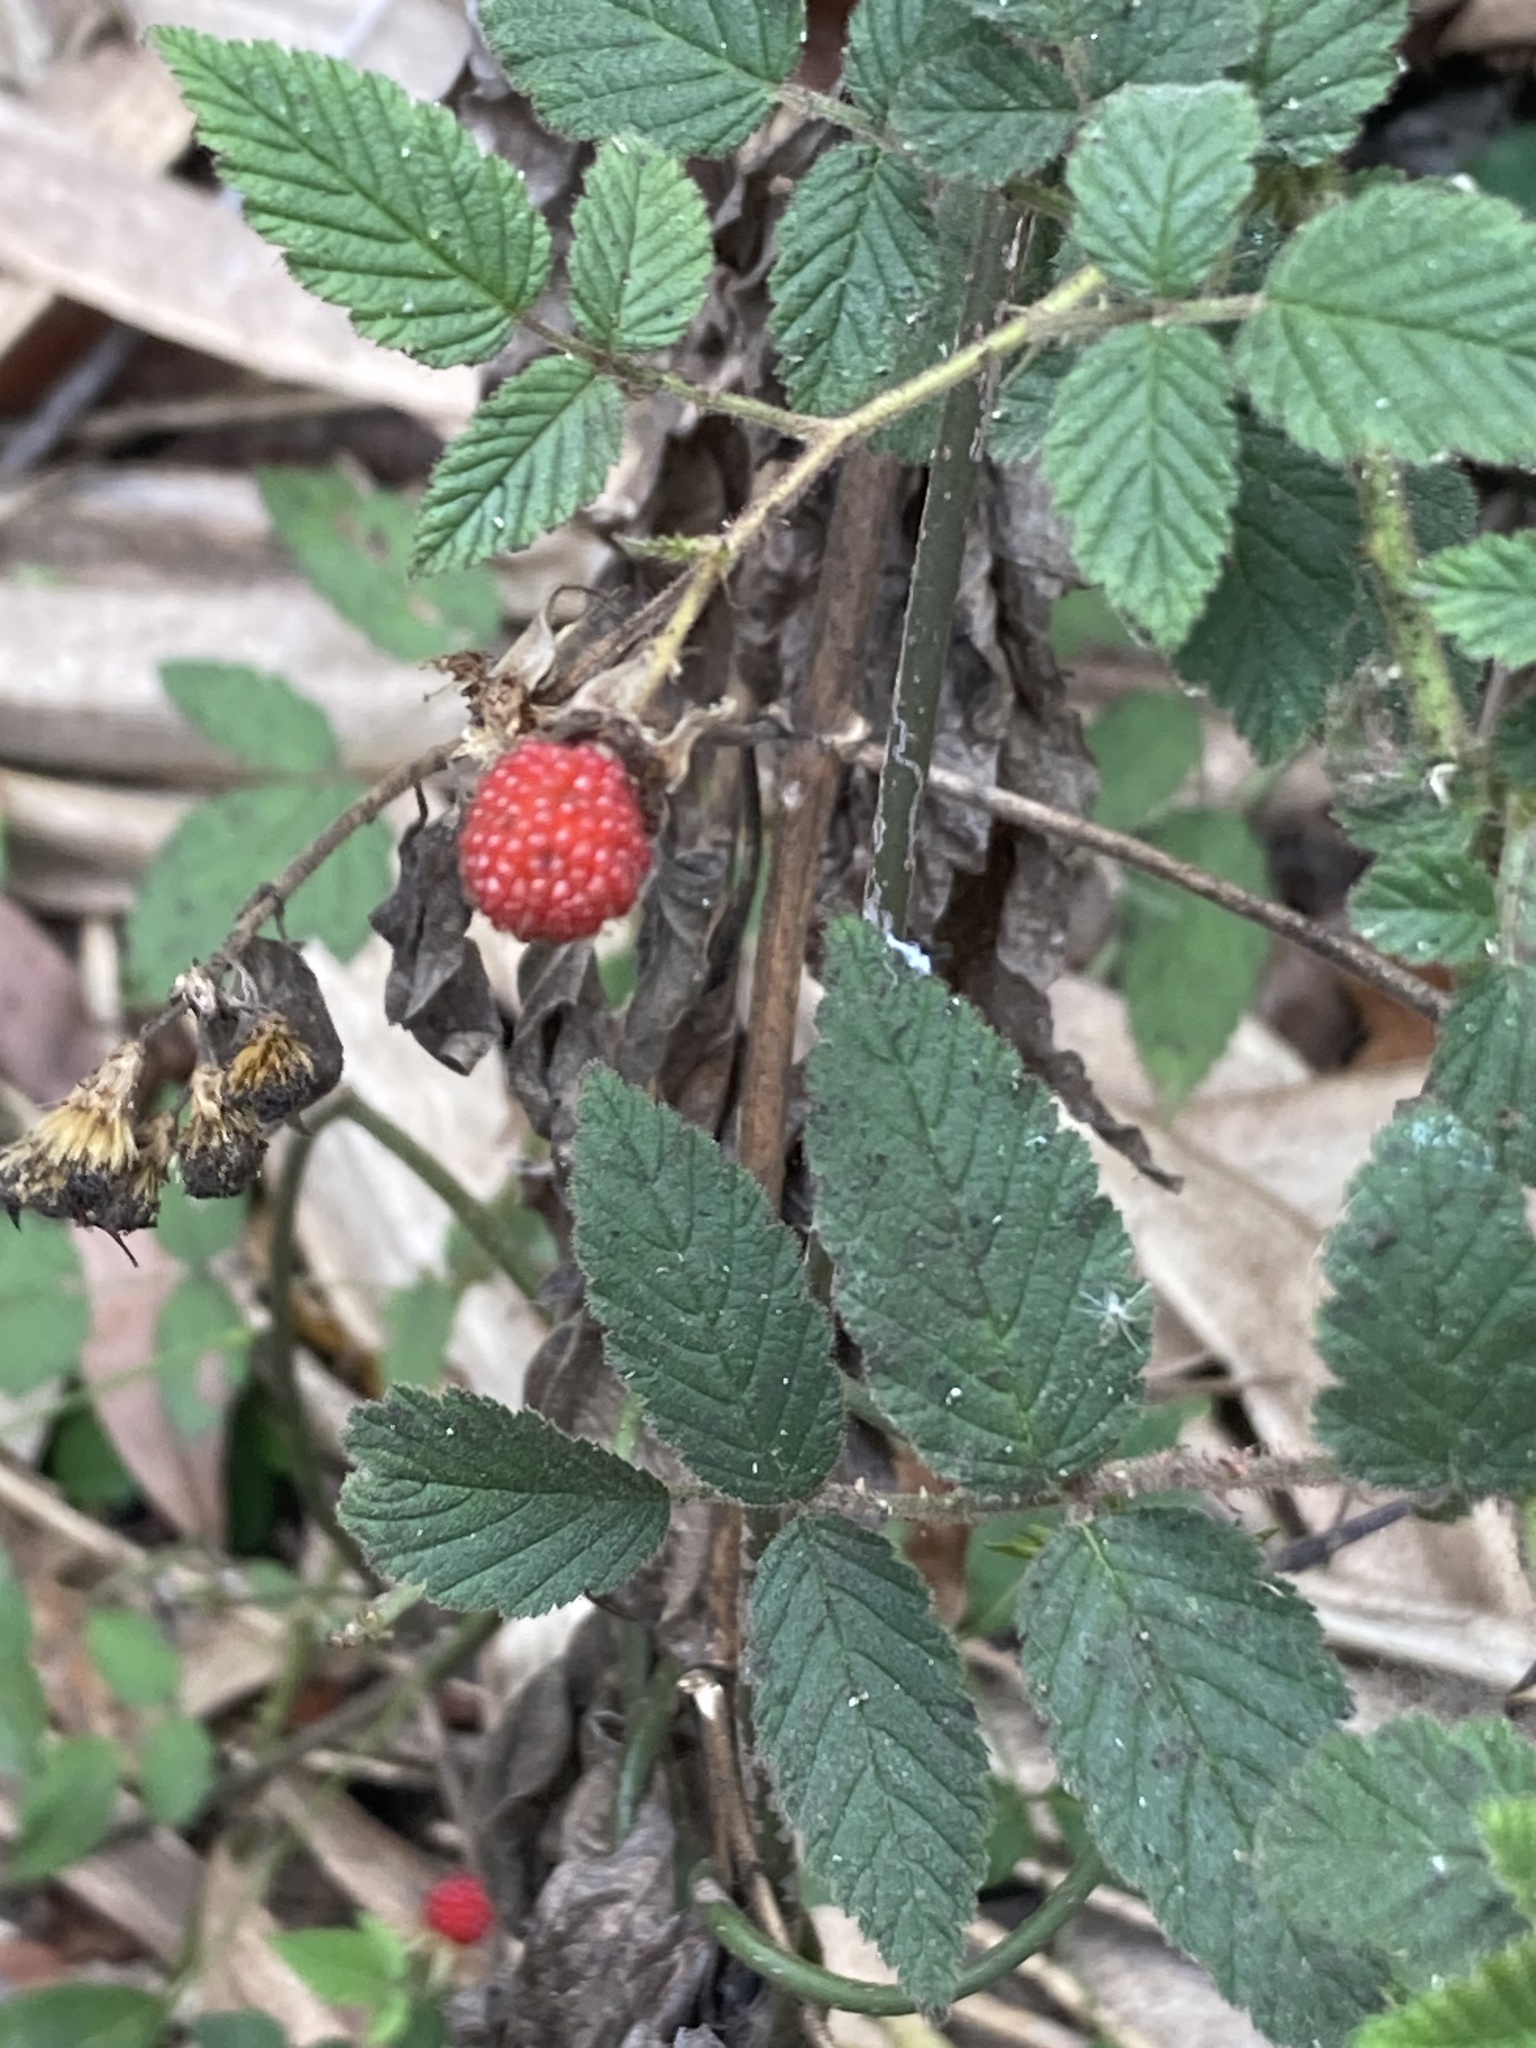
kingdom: Plantae
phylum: Tracheophyta
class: Magnoliopsida
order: Rosales
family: Rosaceae
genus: Rubus
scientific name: Rubus croceacanthus
